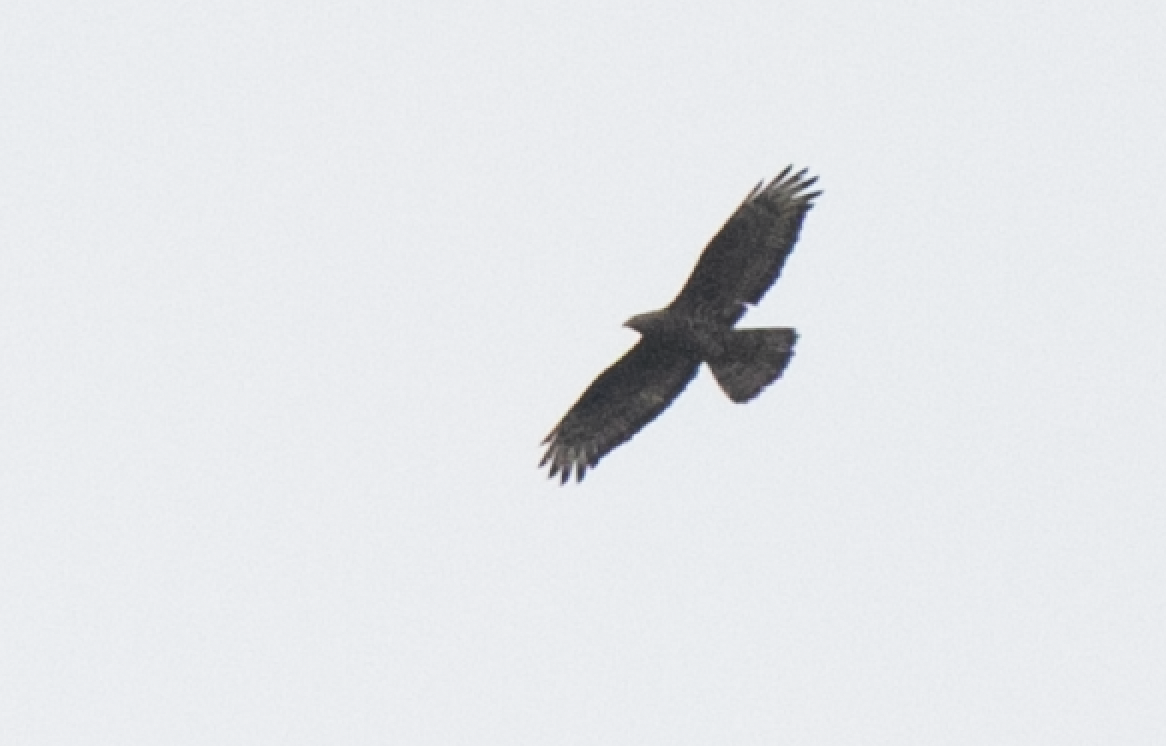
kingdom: Animalia
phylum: Chordata
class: Aves
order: Accipitriformes
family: Accipitridae
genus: Pernis
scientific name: Pernis apivorus
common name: European honey buzzard
